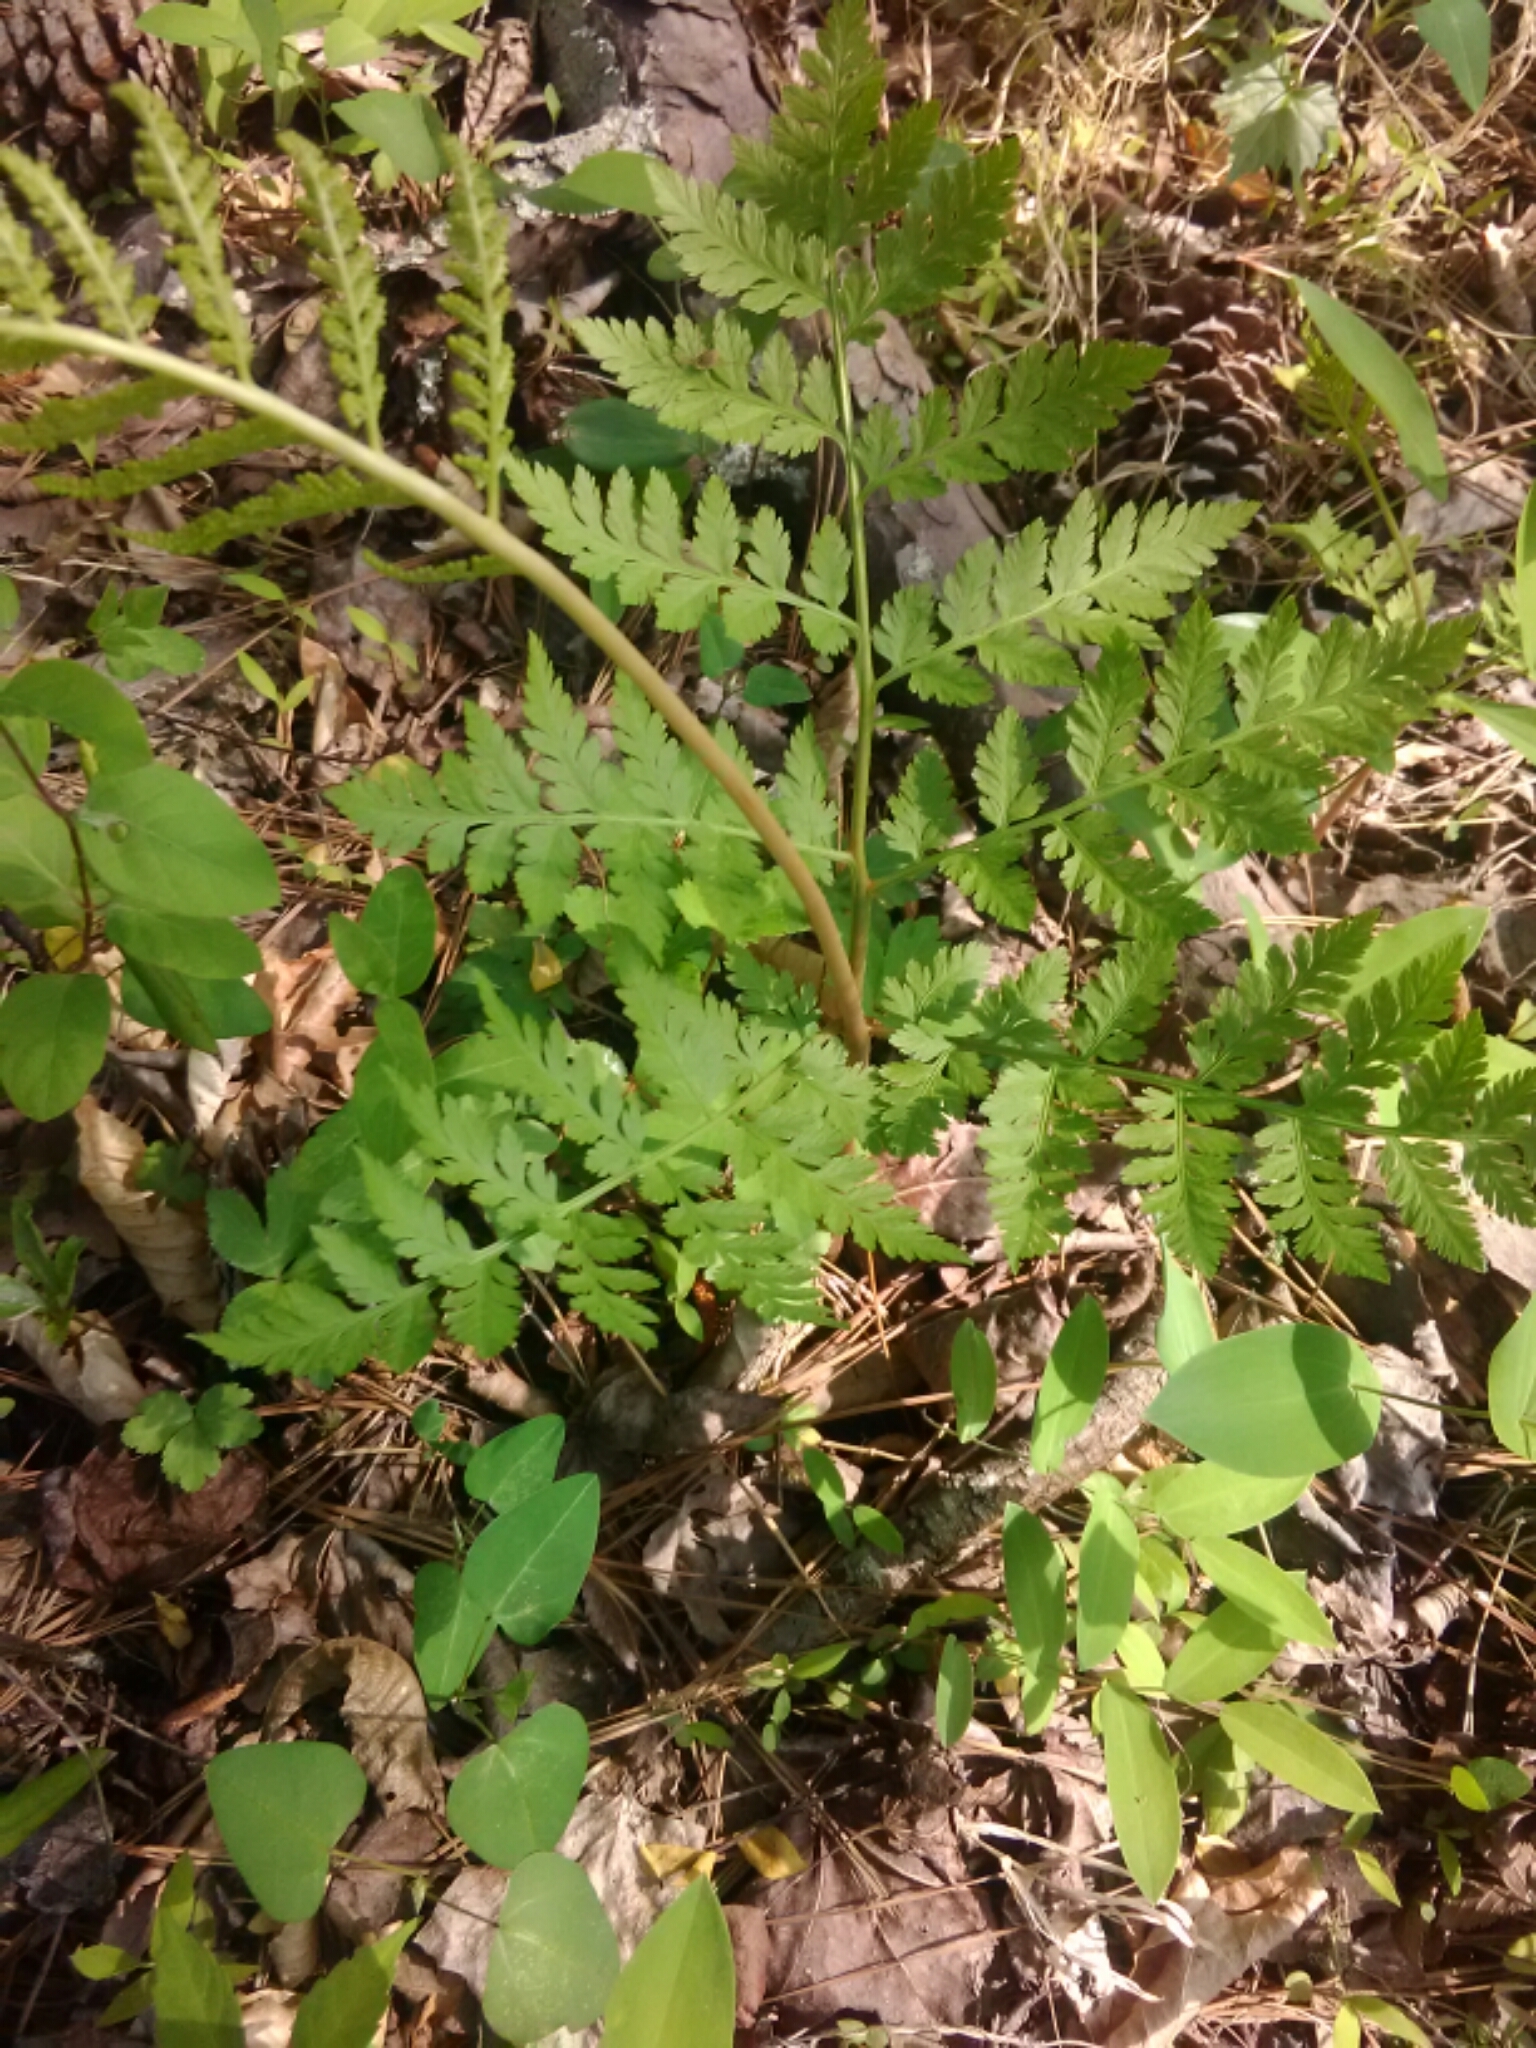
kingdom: Plantae
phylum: Tracheophyta
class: Polypodiopsida
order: Ophioglossales
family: Ophioglossaceae
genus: Botrypus
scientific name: Botrypus virginianus
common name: Common grapefern
